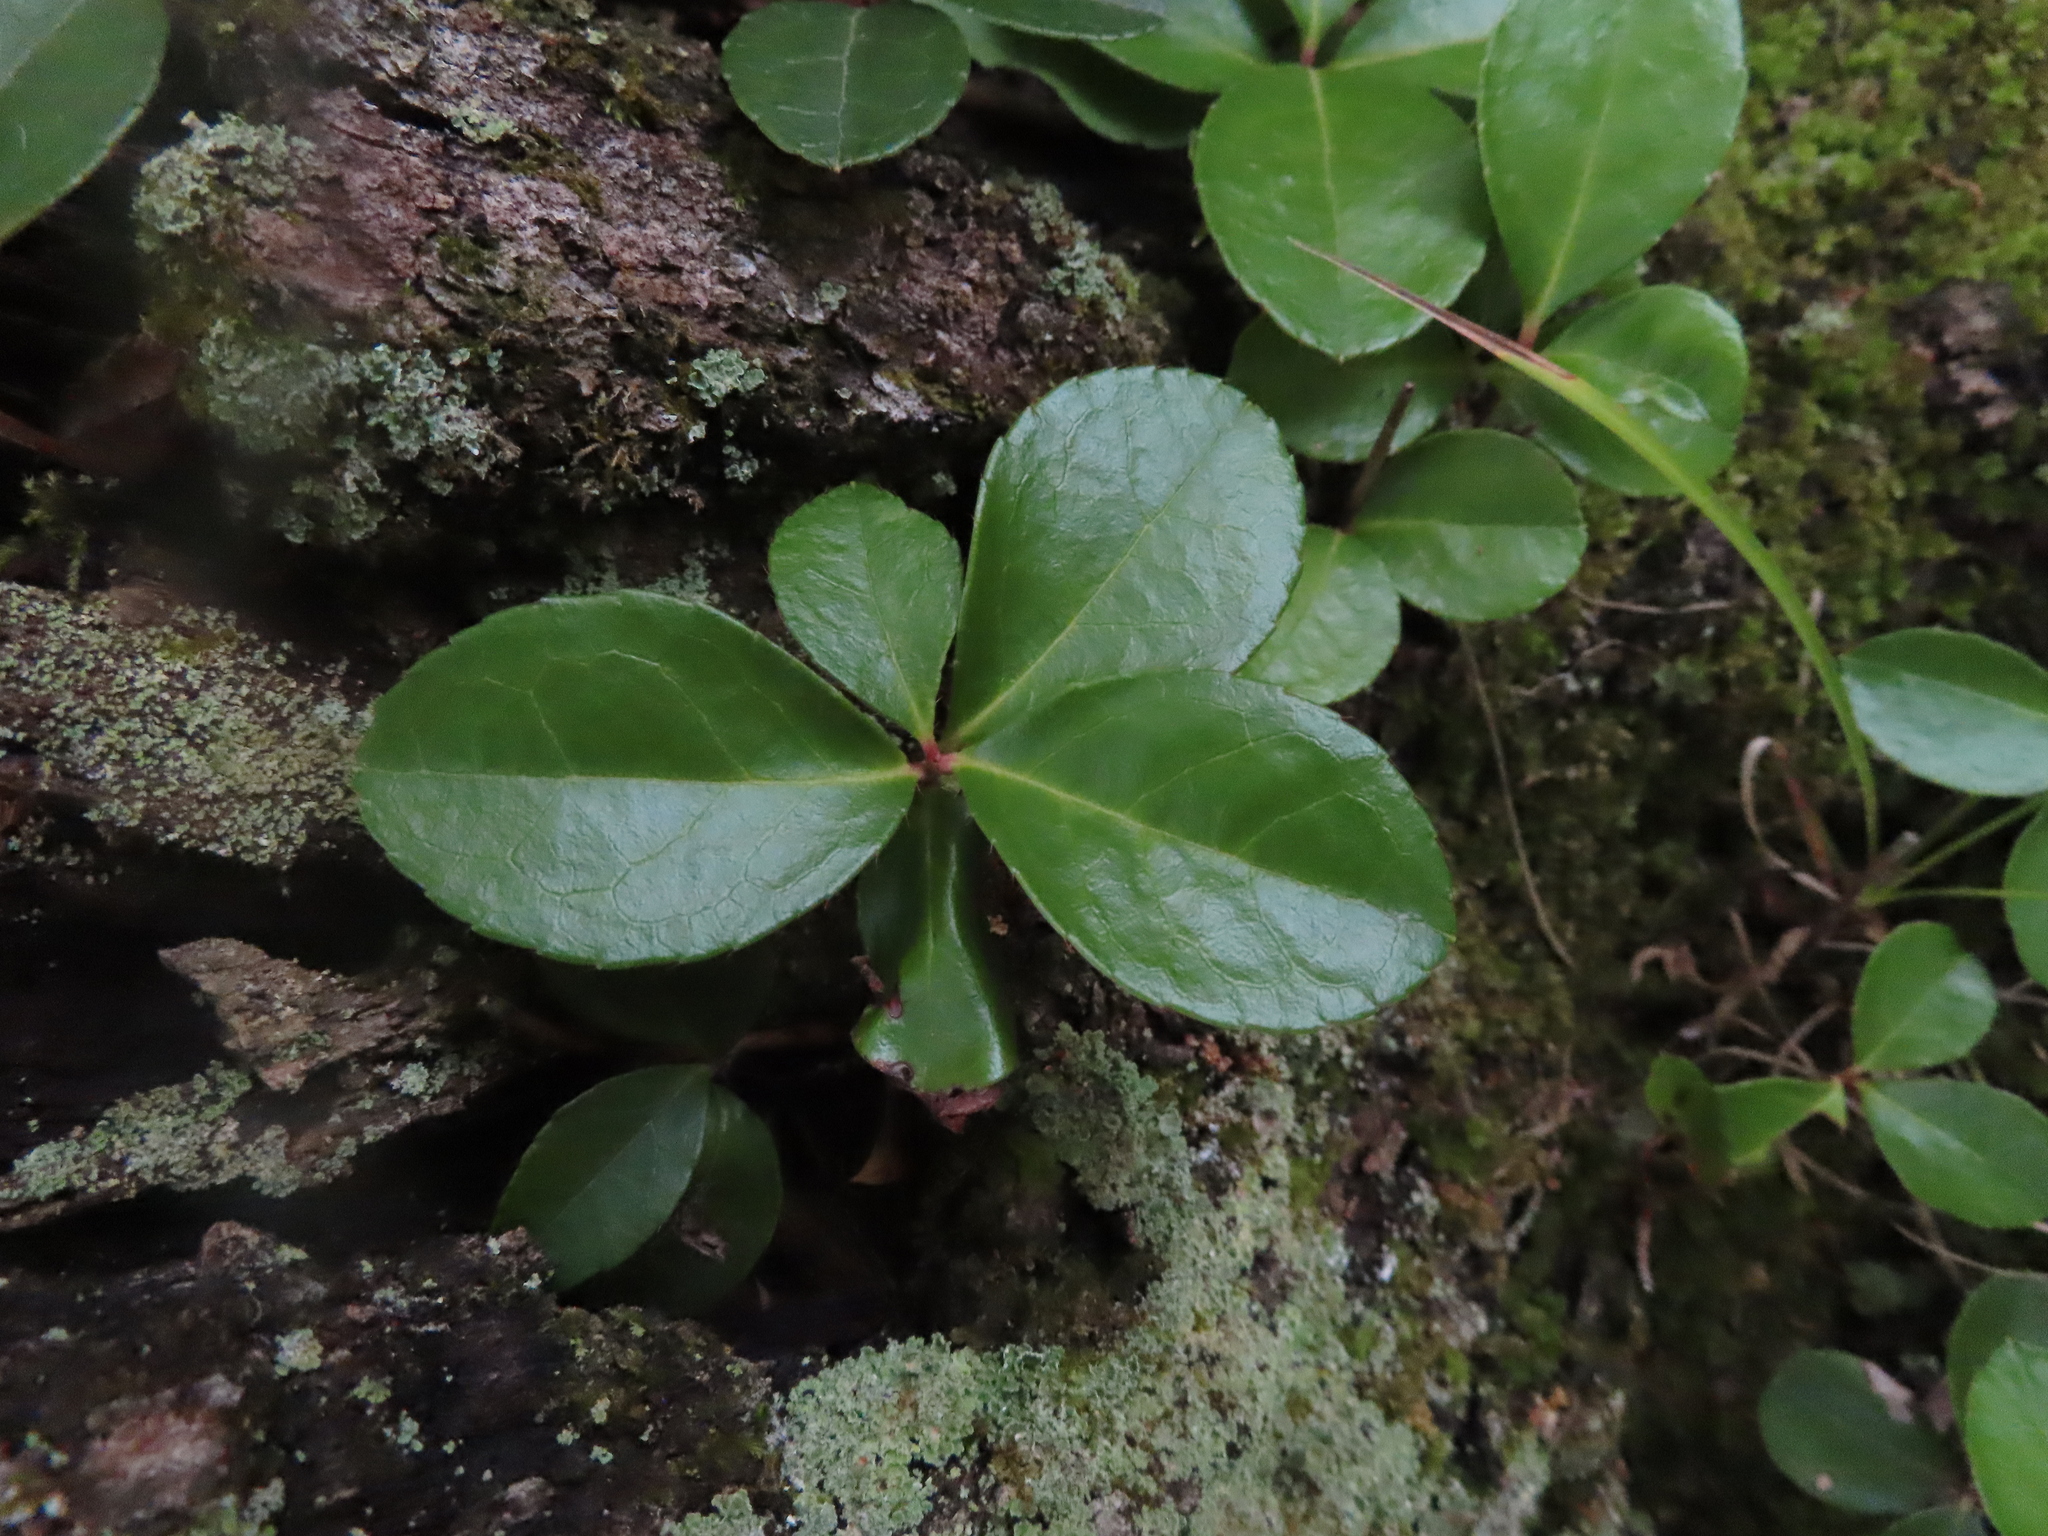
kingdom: Plantae
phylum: Tracheophyta
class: Magnoliopsida
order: Ericales
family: Ericaceae
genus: Gaultheria
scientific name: Gaultheria procumbens
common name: Checkerberry
